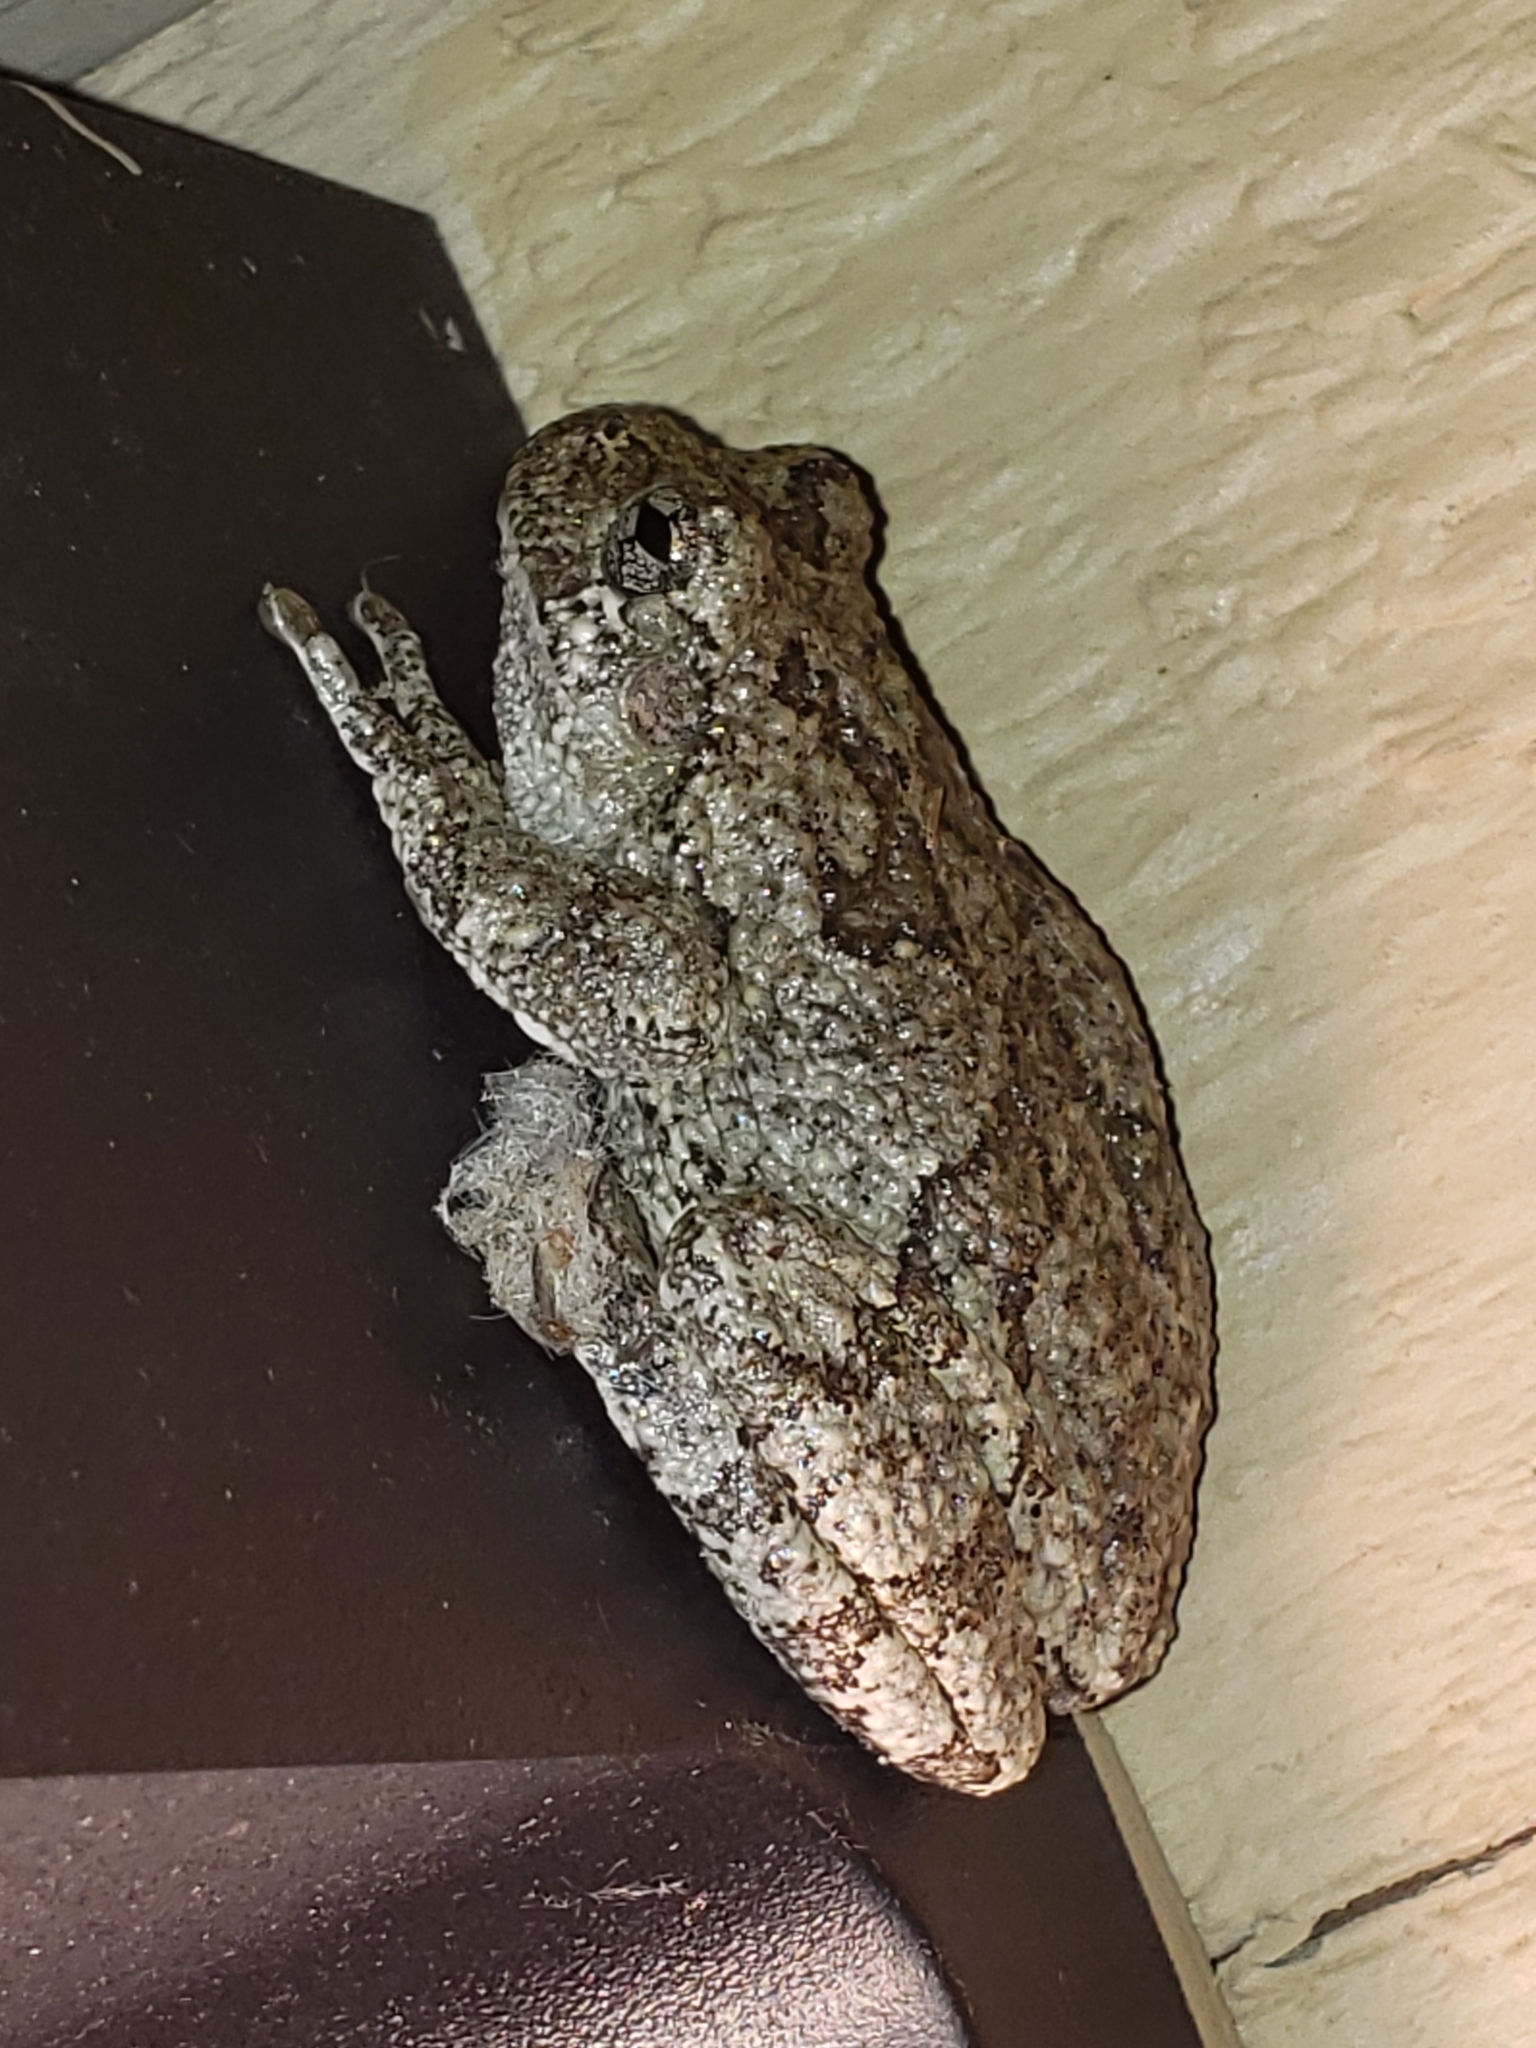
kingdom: Animalia
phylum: Chordata
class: Amphibia
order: Anura
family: Hylidae
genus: Hyla
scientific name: Hyla
